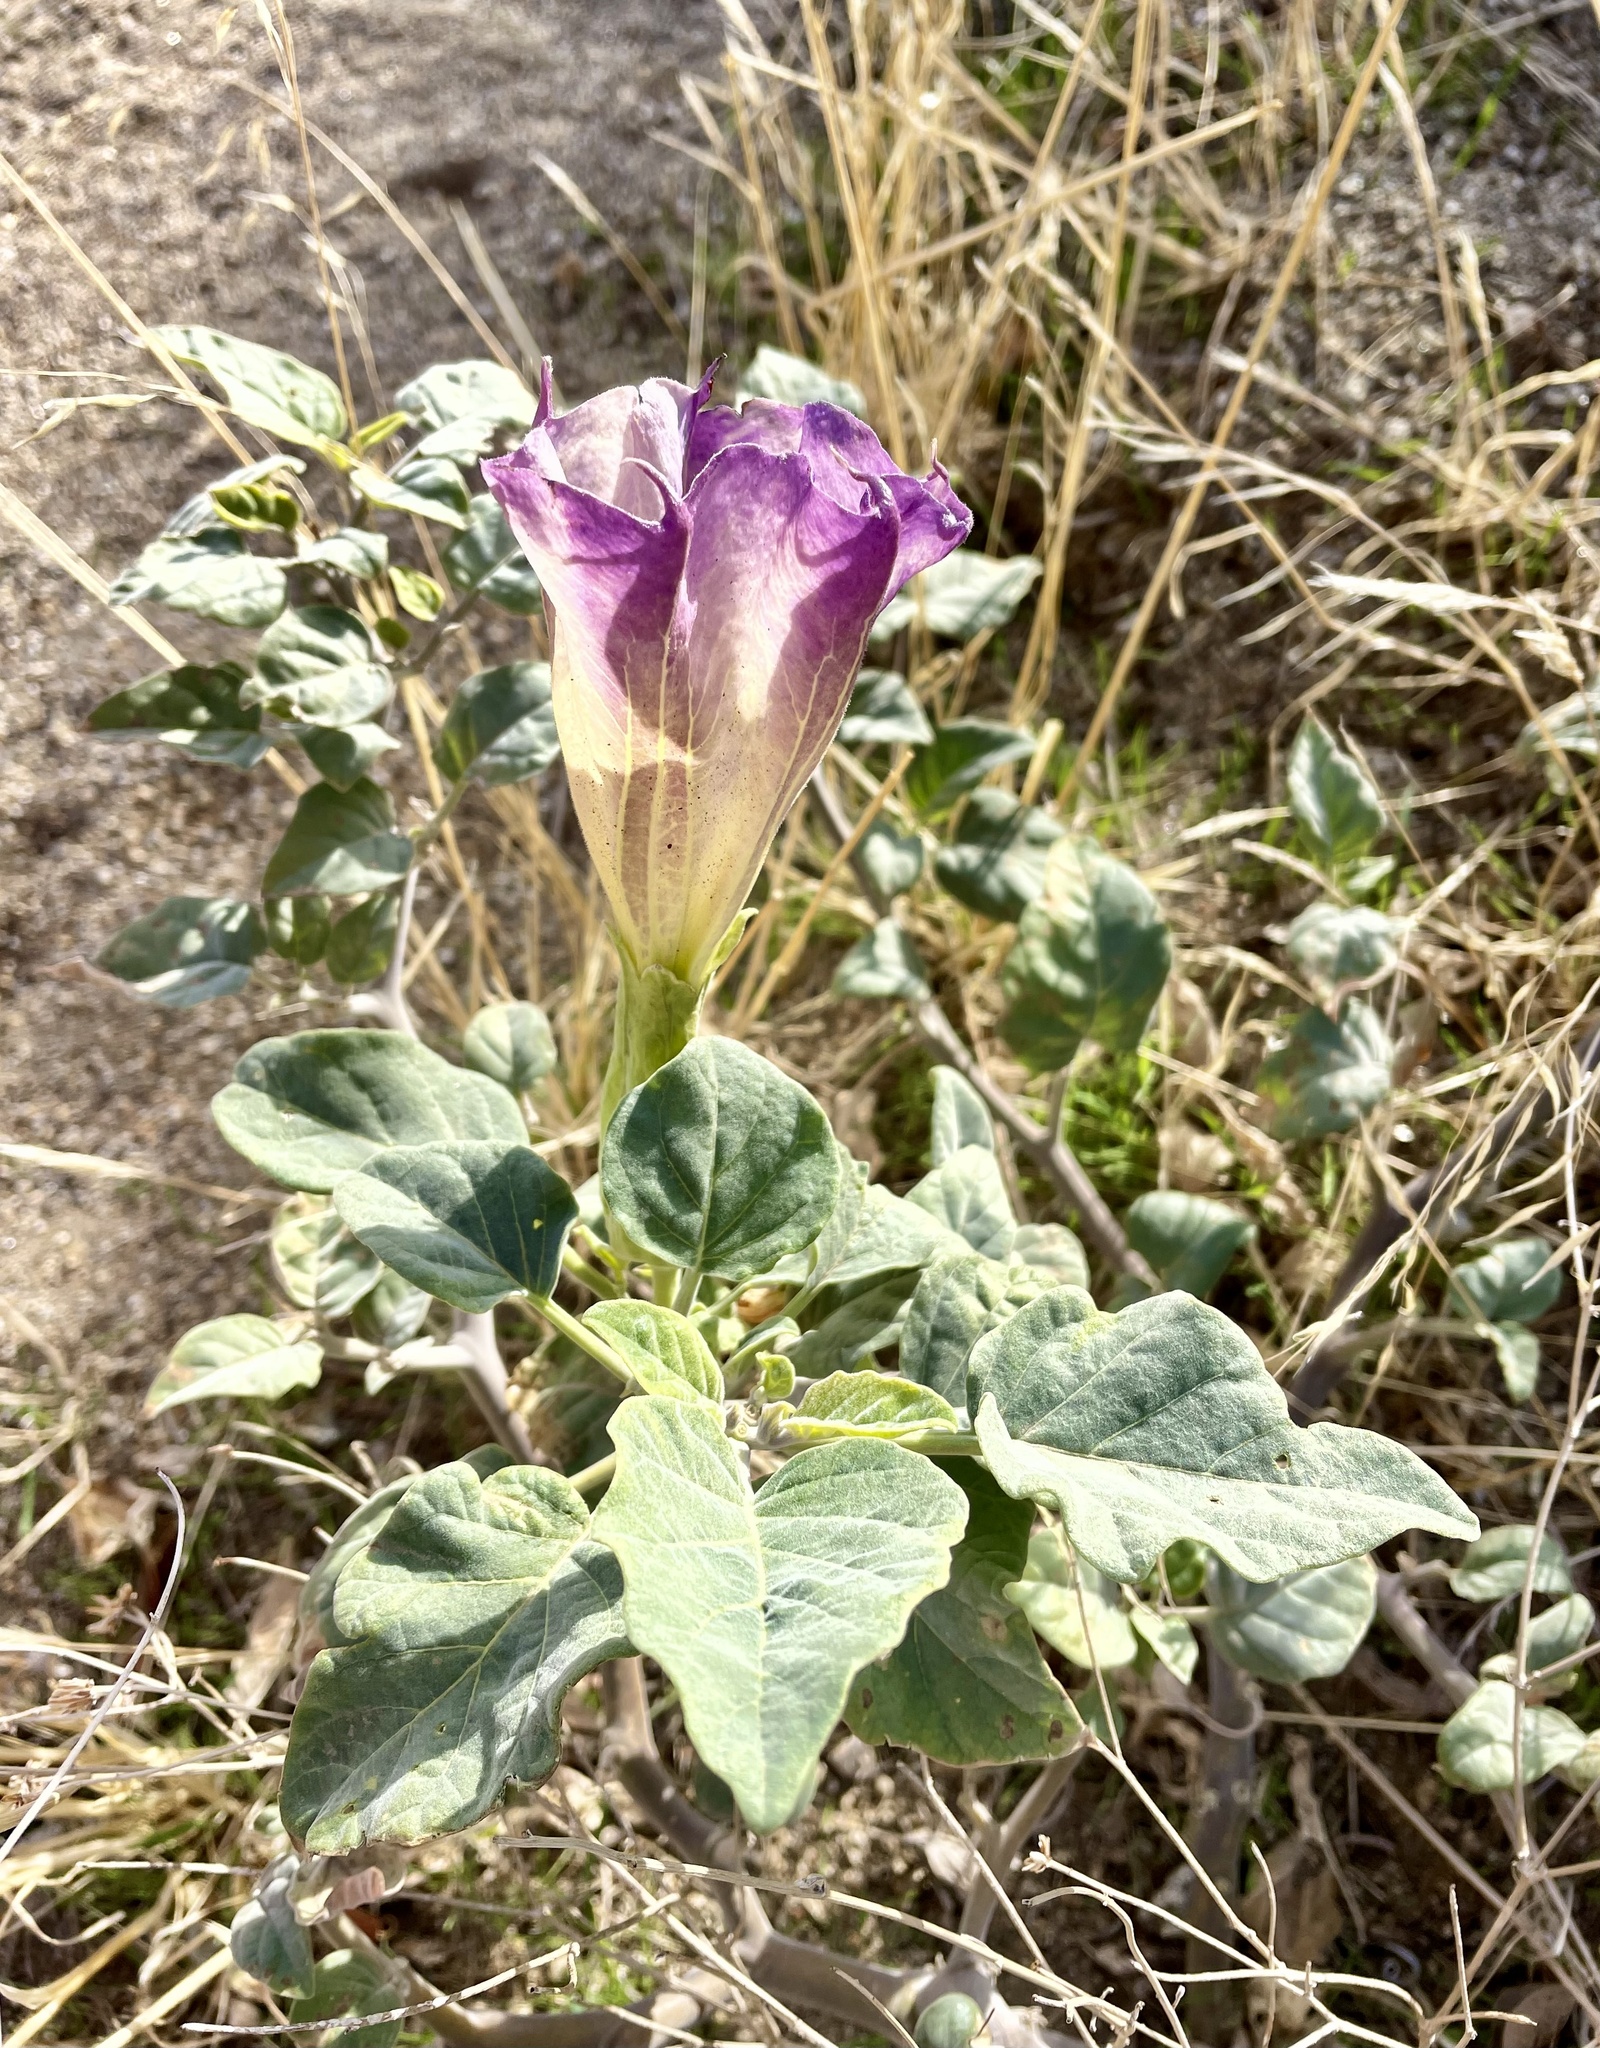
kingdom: Plantae
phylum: Tracheophyta
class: Magnoliopsida
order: Solanales
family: Solanaceae
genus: Datura
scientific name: Datura wrightii
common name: Sacred thorn-apple
